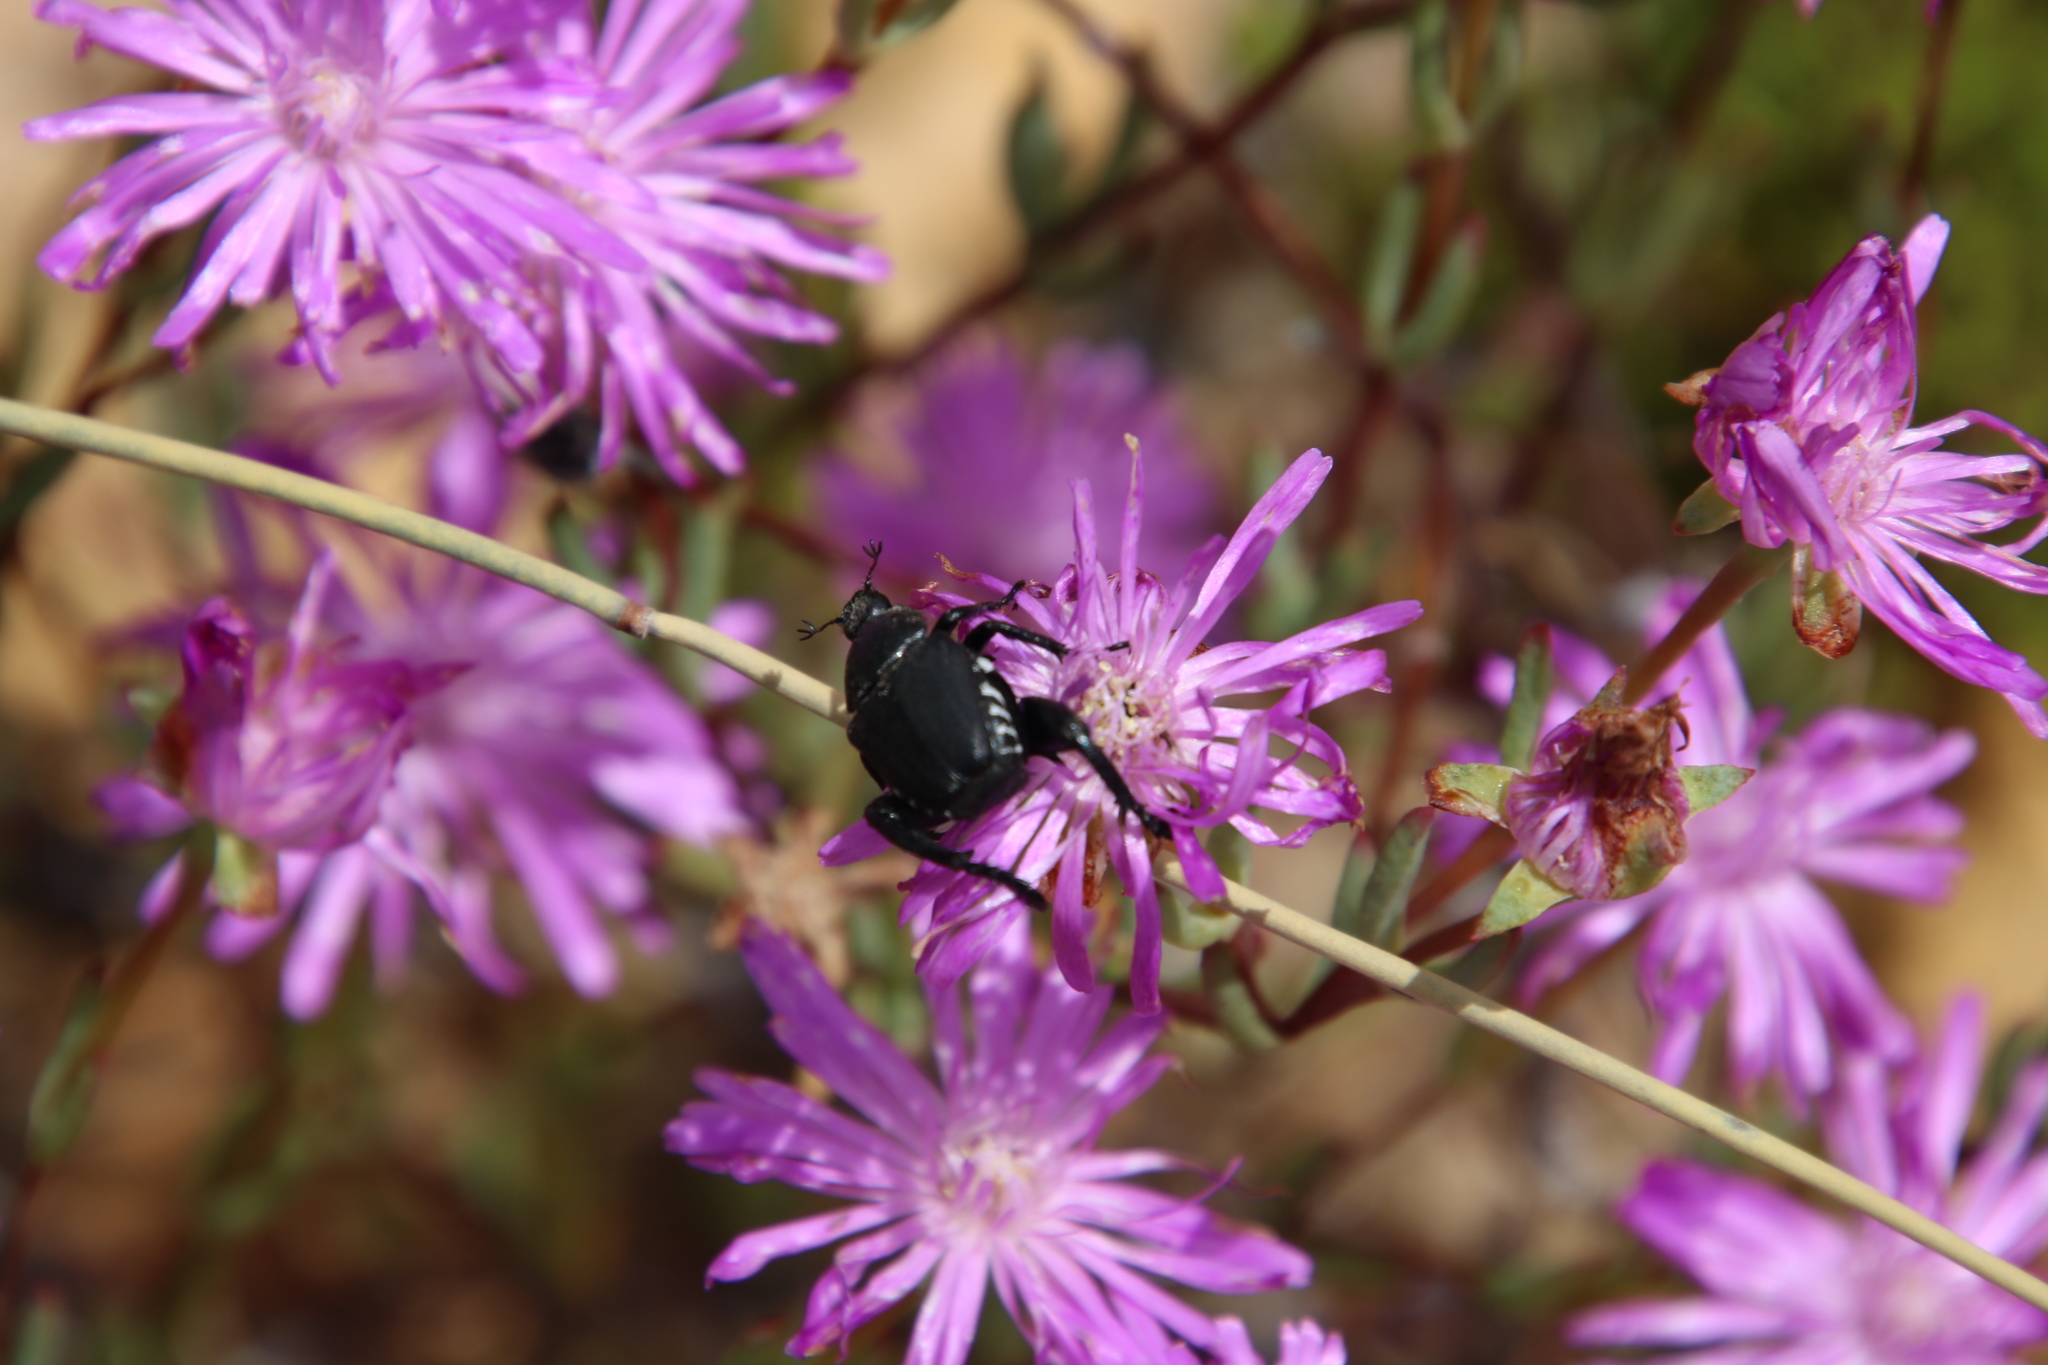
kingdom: Plantae
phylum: Tracheophyta
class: Magnoliopsida
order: Caryophyllales
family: Aizoaceae
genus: Lampranthus
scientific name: Lampranthus leptosepalus
